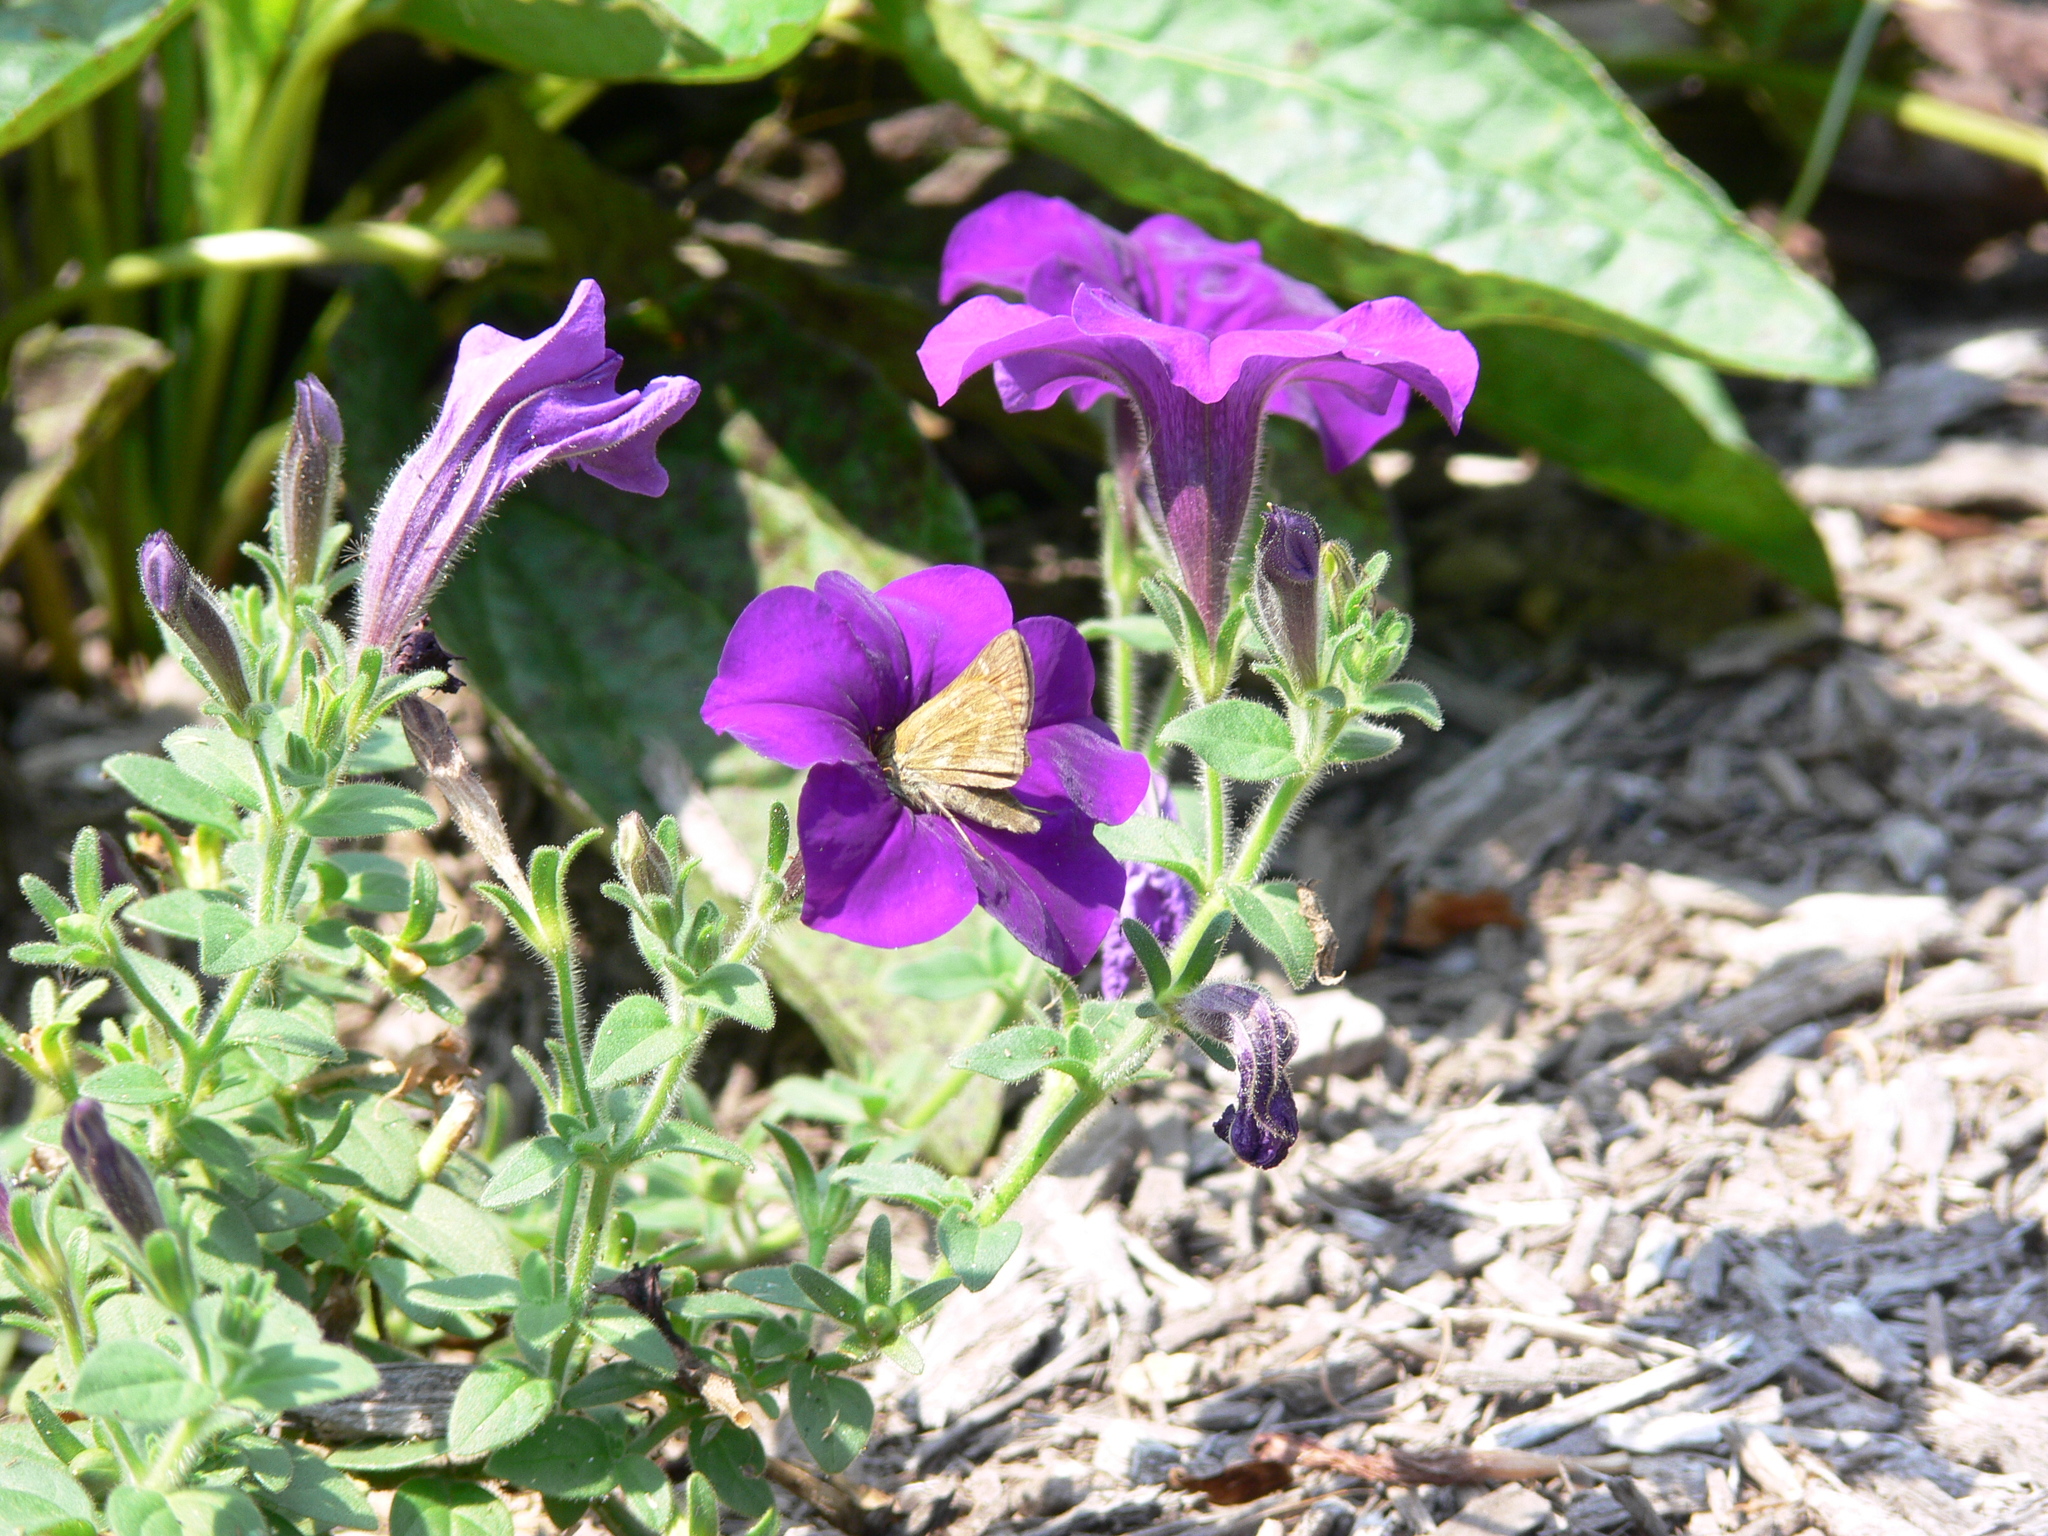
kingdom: Animalia
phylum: Arthropoda
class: Insecta
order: Lepidoptera
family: Hesperiidae
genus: Atalopedes
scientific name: Atalopedes
